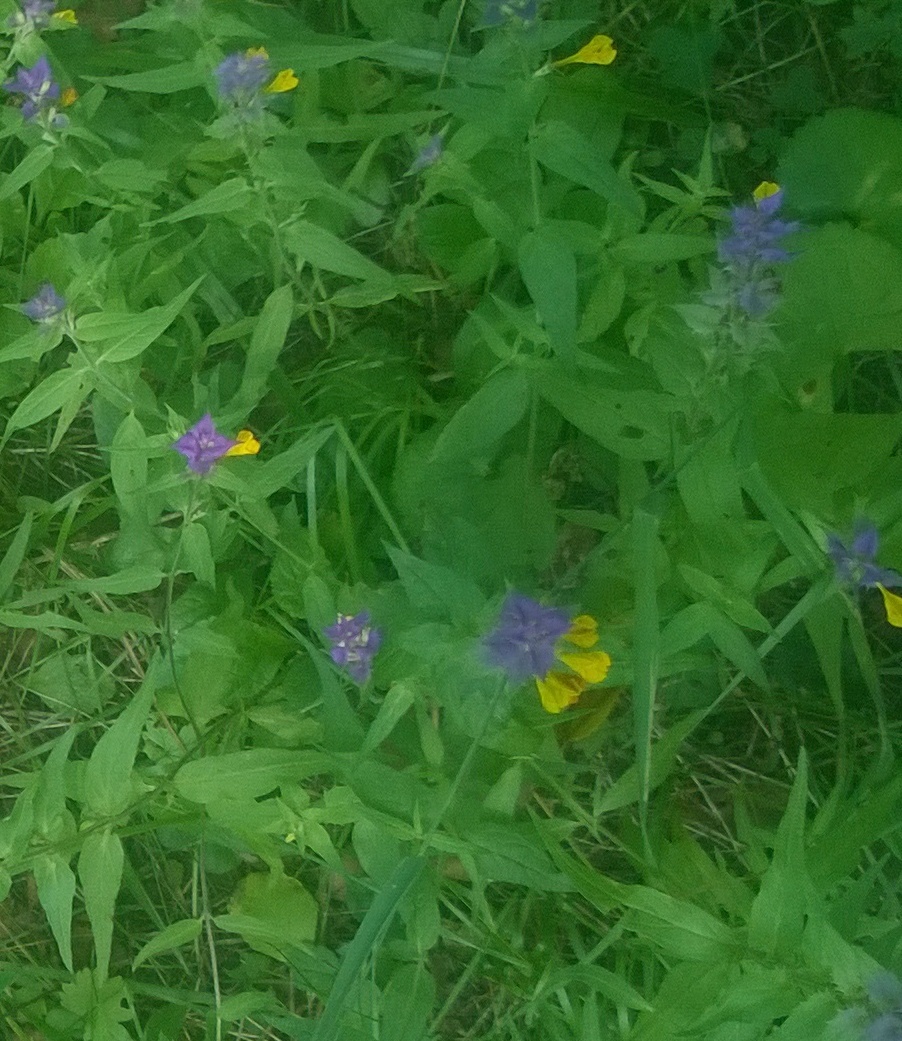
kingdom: Plantae
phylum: Tracheophyta
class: Magnoliopsida
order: Lamiales
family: Orobanchaceae
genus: Melampyrum
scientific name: Melampyrum nemorosum
